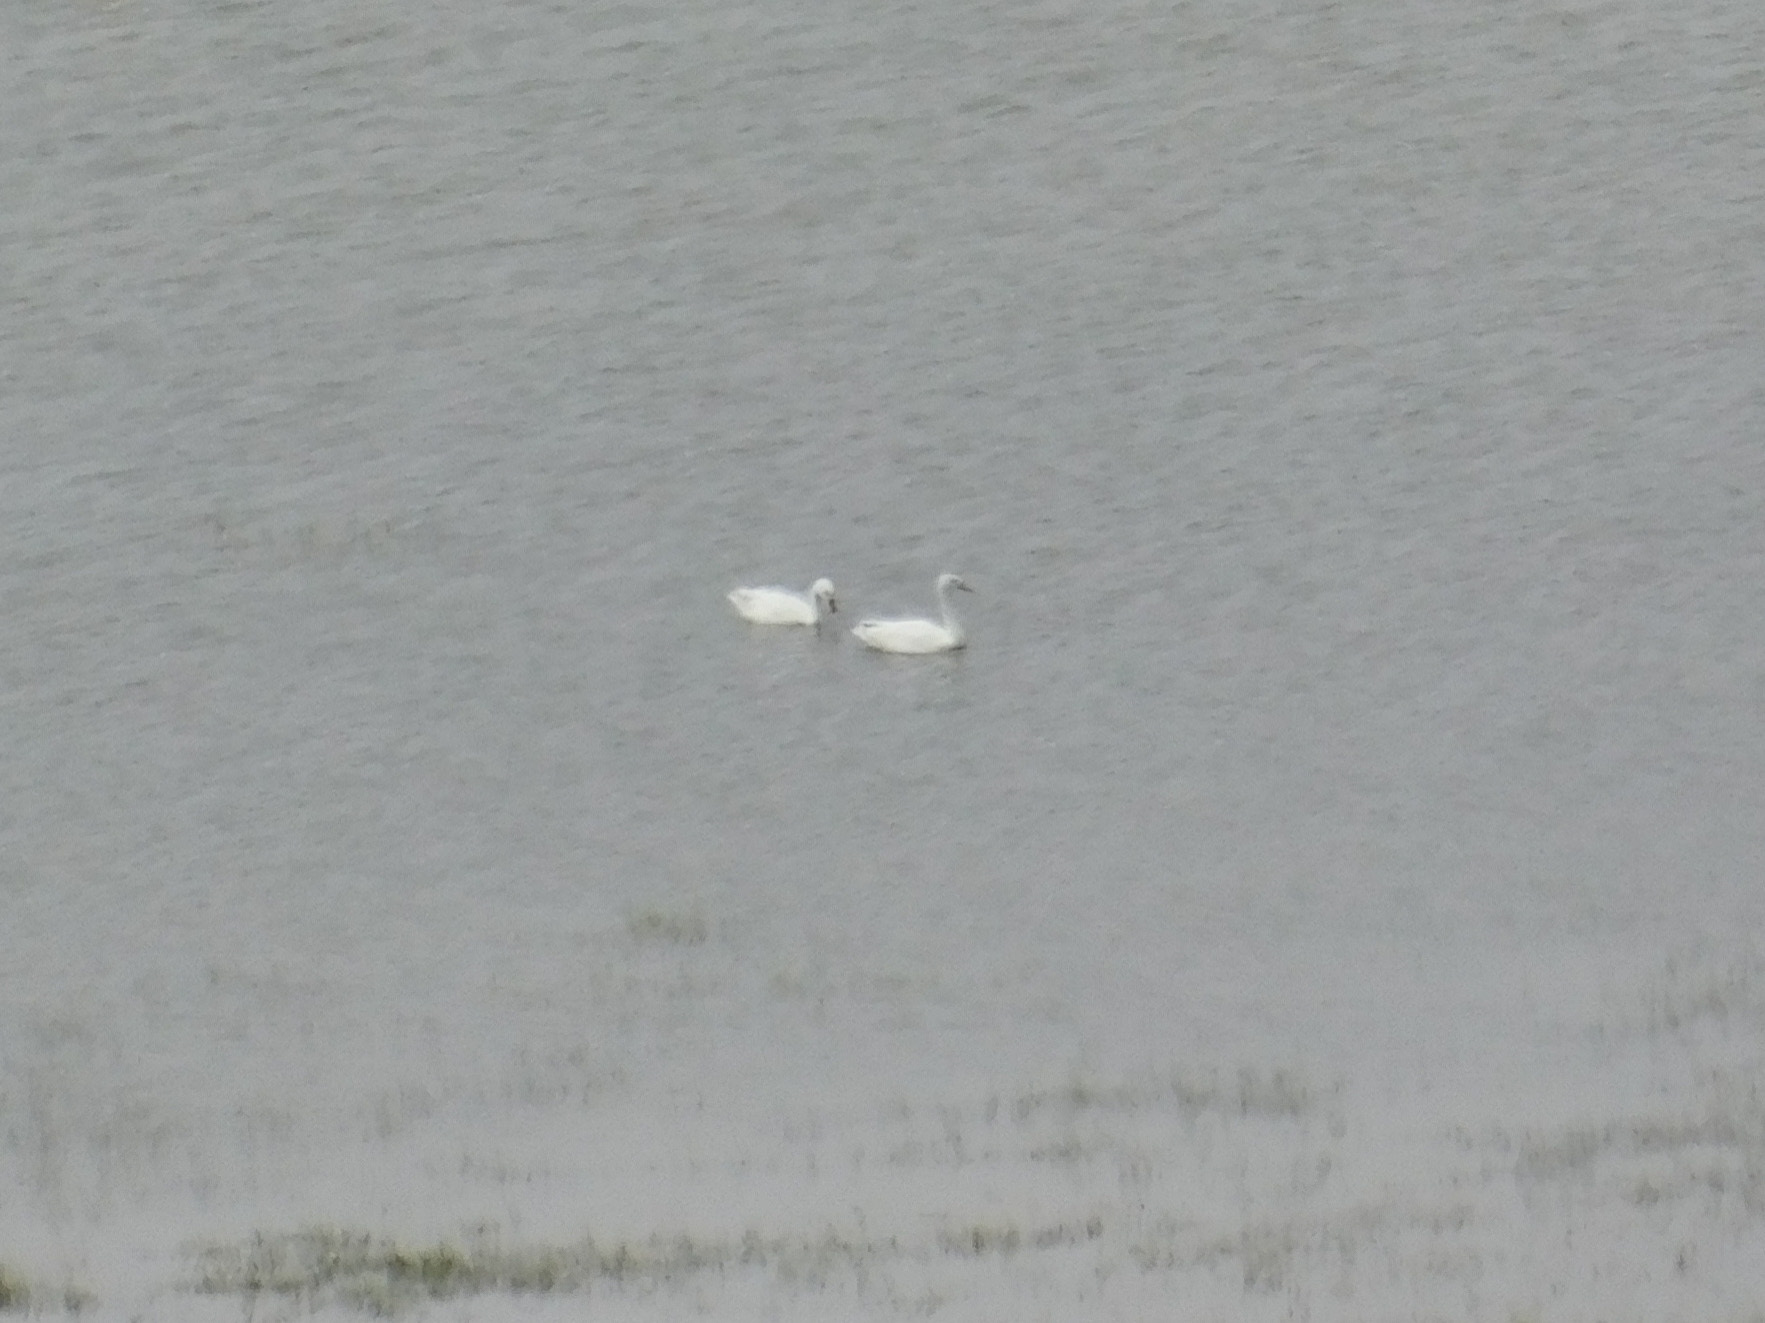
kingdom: Animalia
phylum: Chordata
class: Aves
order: Anseriformes
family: Anatidae
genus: Coscoroba
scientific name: Coscoroba coscoroba
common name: Coscoroba swan
